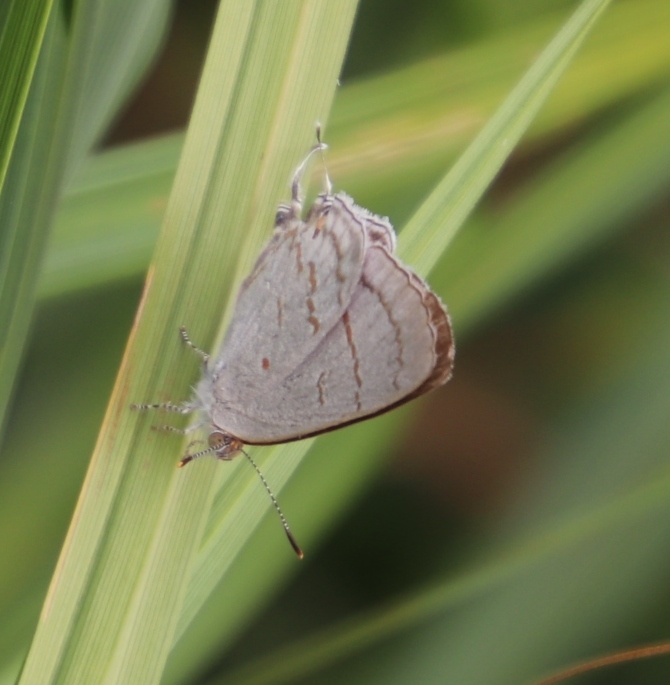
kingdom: Animalia
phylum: Arthropoda
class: Insecta
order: Lepidoptera
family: Lycaenidae
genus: Hypolycaena
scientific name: Hypolycaena philippus
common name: Common hairstreak
